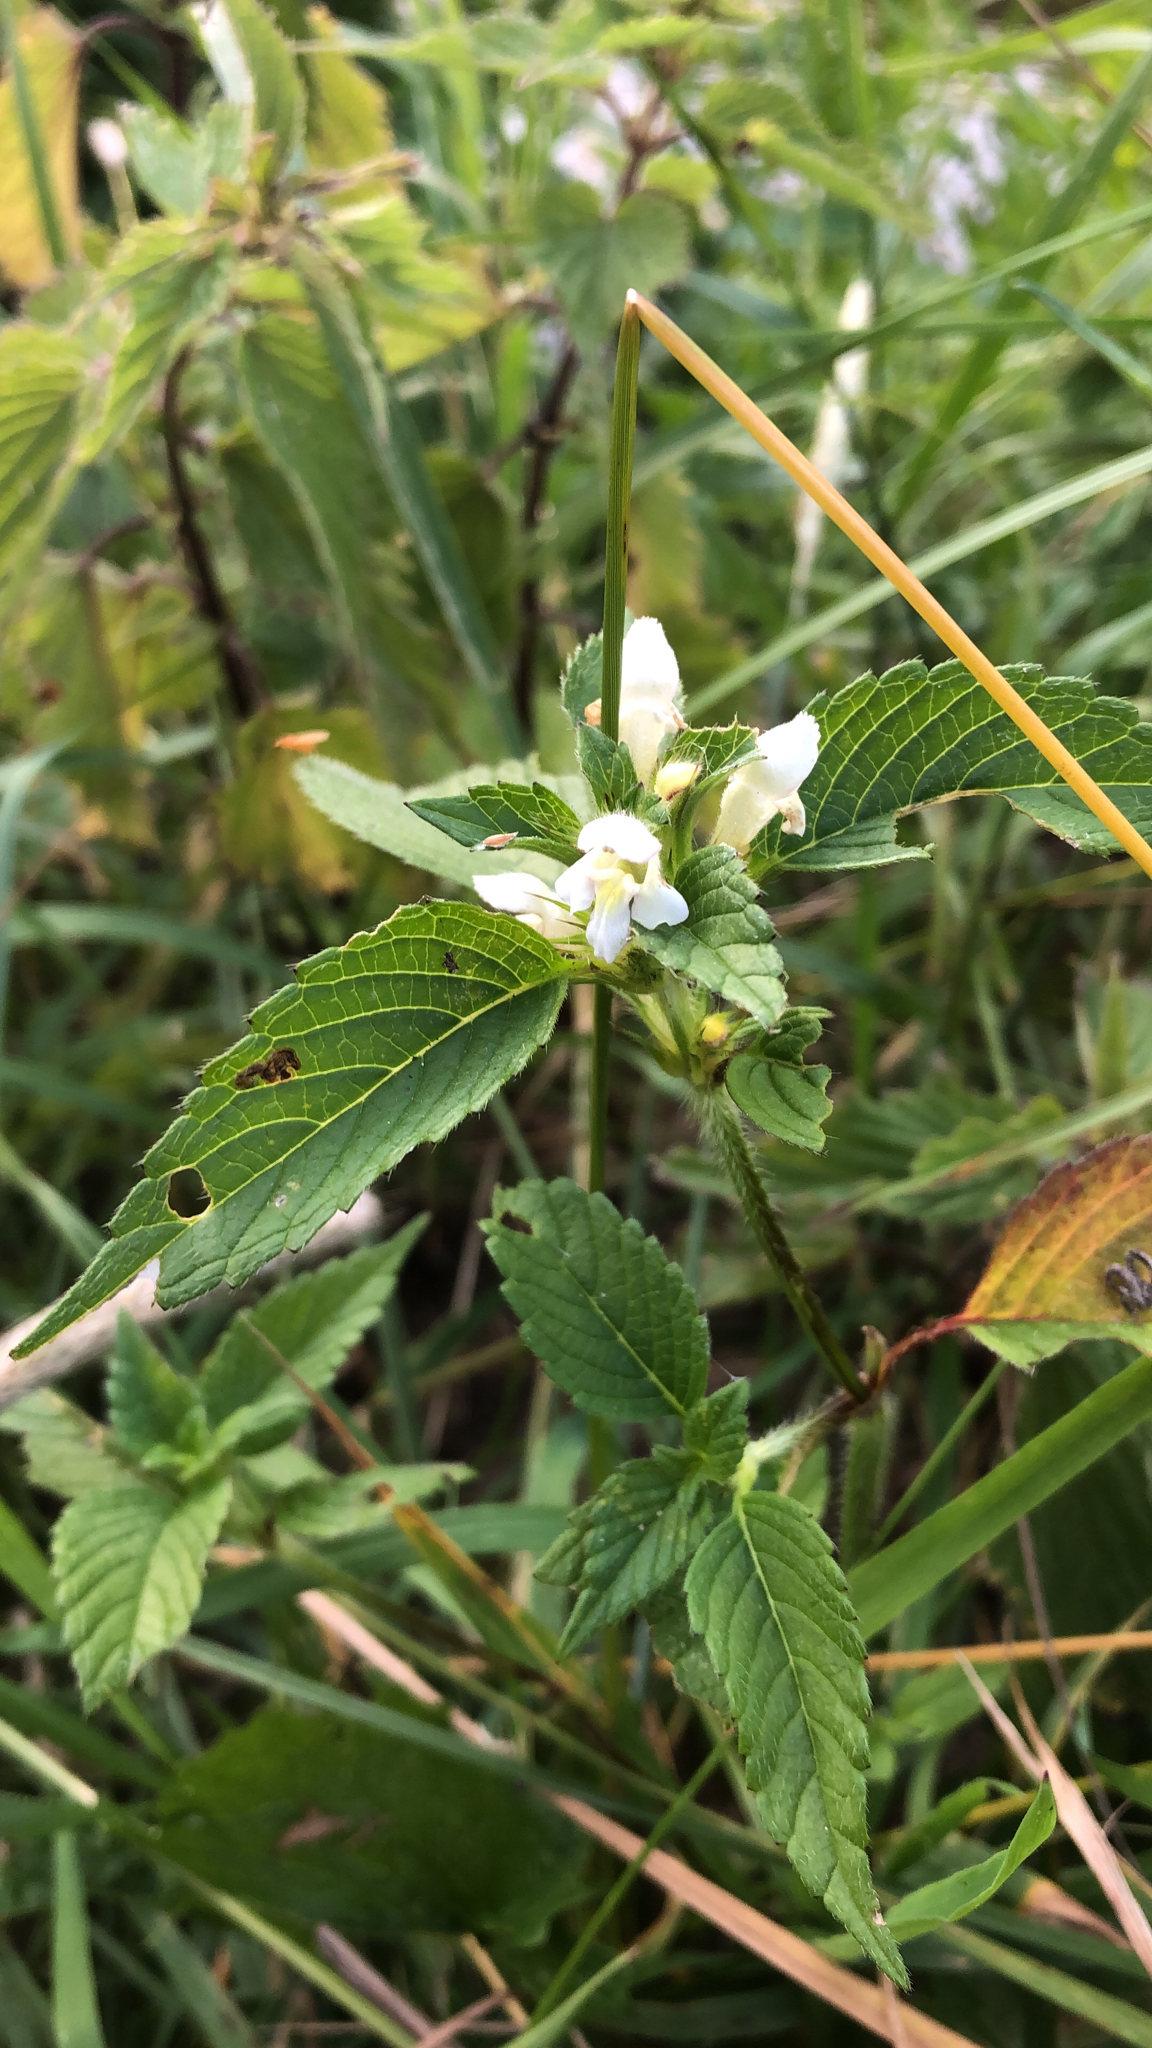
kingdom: Plantae
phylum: Tracheophyta
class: Magnoliopsida
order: Lamiales
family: Lamiaceae
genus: Galeopsis
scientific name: Galeopsis bifida
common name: Bifid hemp-nettle
